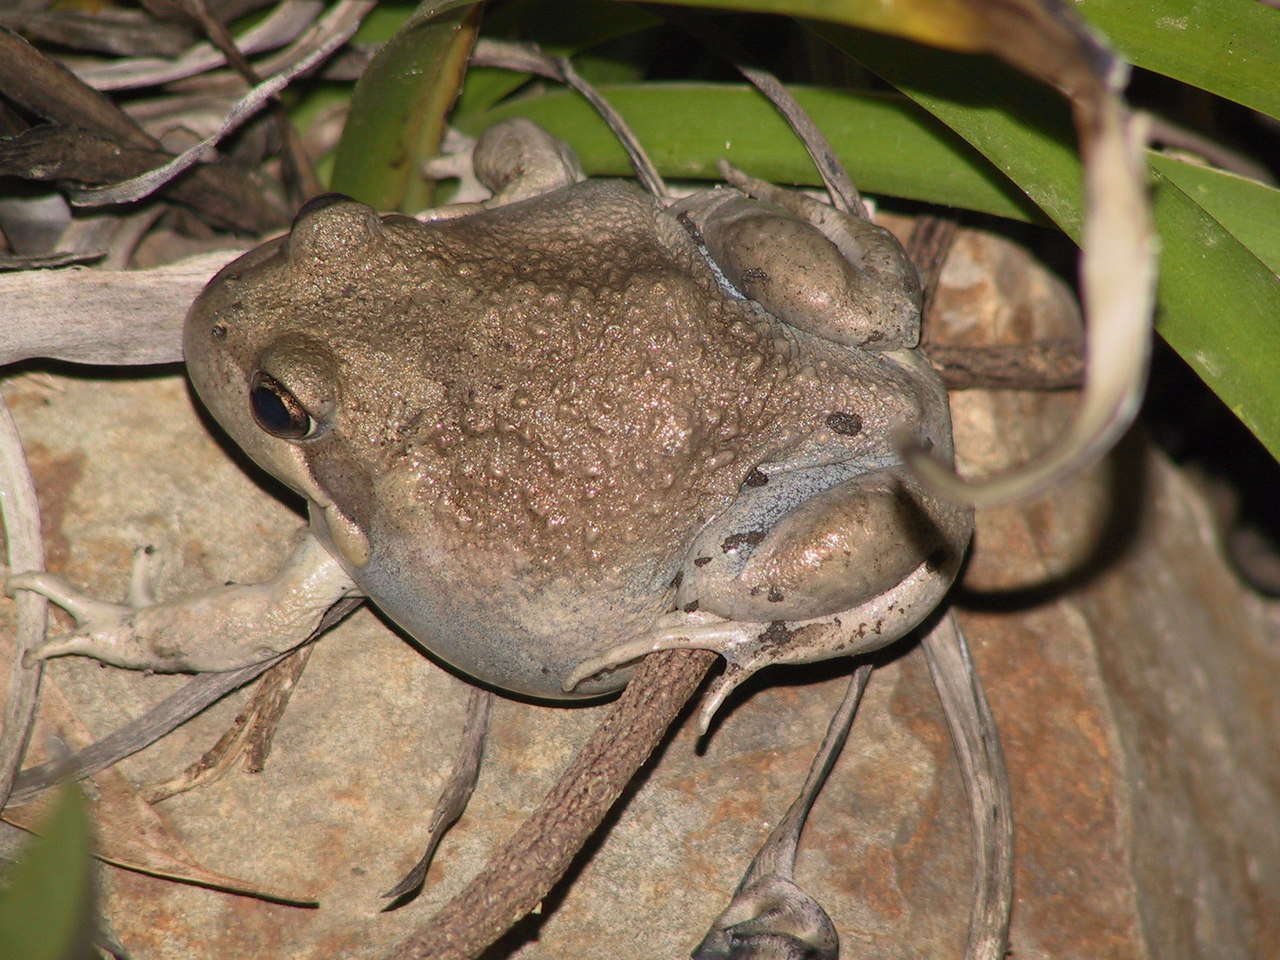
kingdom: Animalia
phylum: Chordata
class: Amphibia
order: Anura
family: Limnodynastidae
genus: Limnodynastes
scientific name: Limnodynastes dumerilii
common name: Banjo frog
